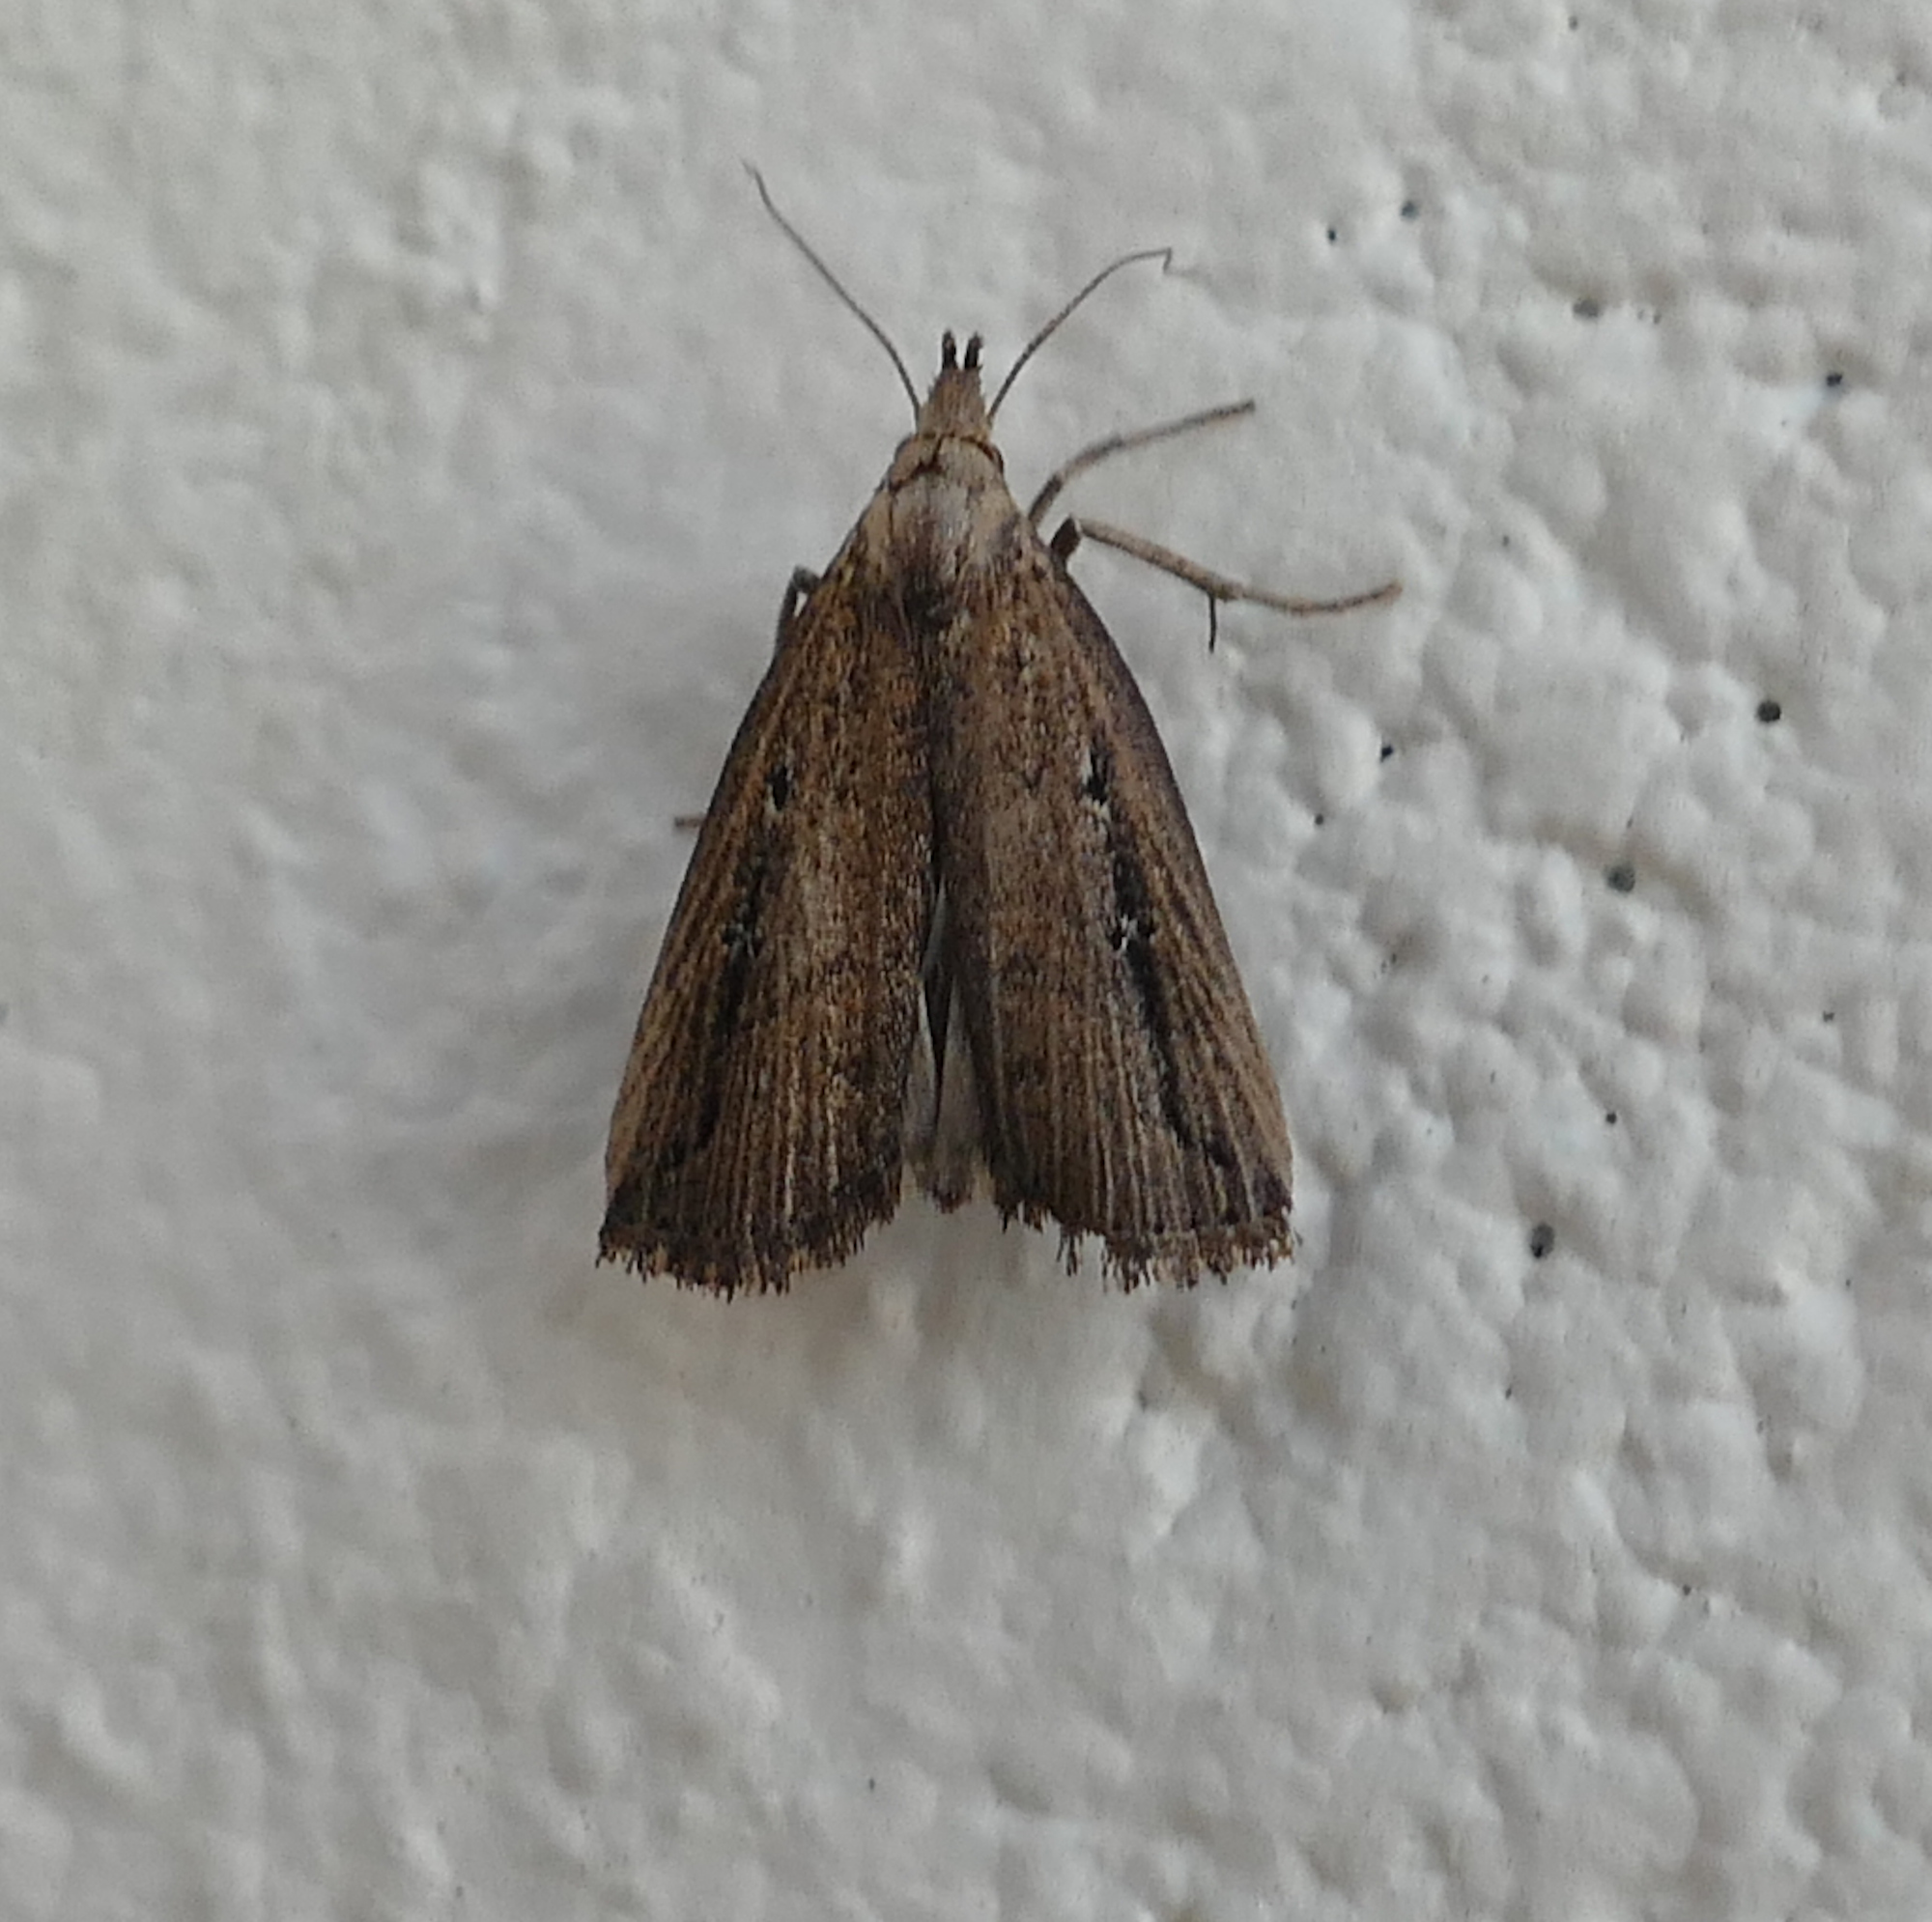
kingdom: Animalia
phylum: Arthropoda
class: Insecta
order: Lepidoptera
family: Erebidae
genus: Macrochilo
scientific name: Macrochilo orciferalis
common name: Bronzy owlet
